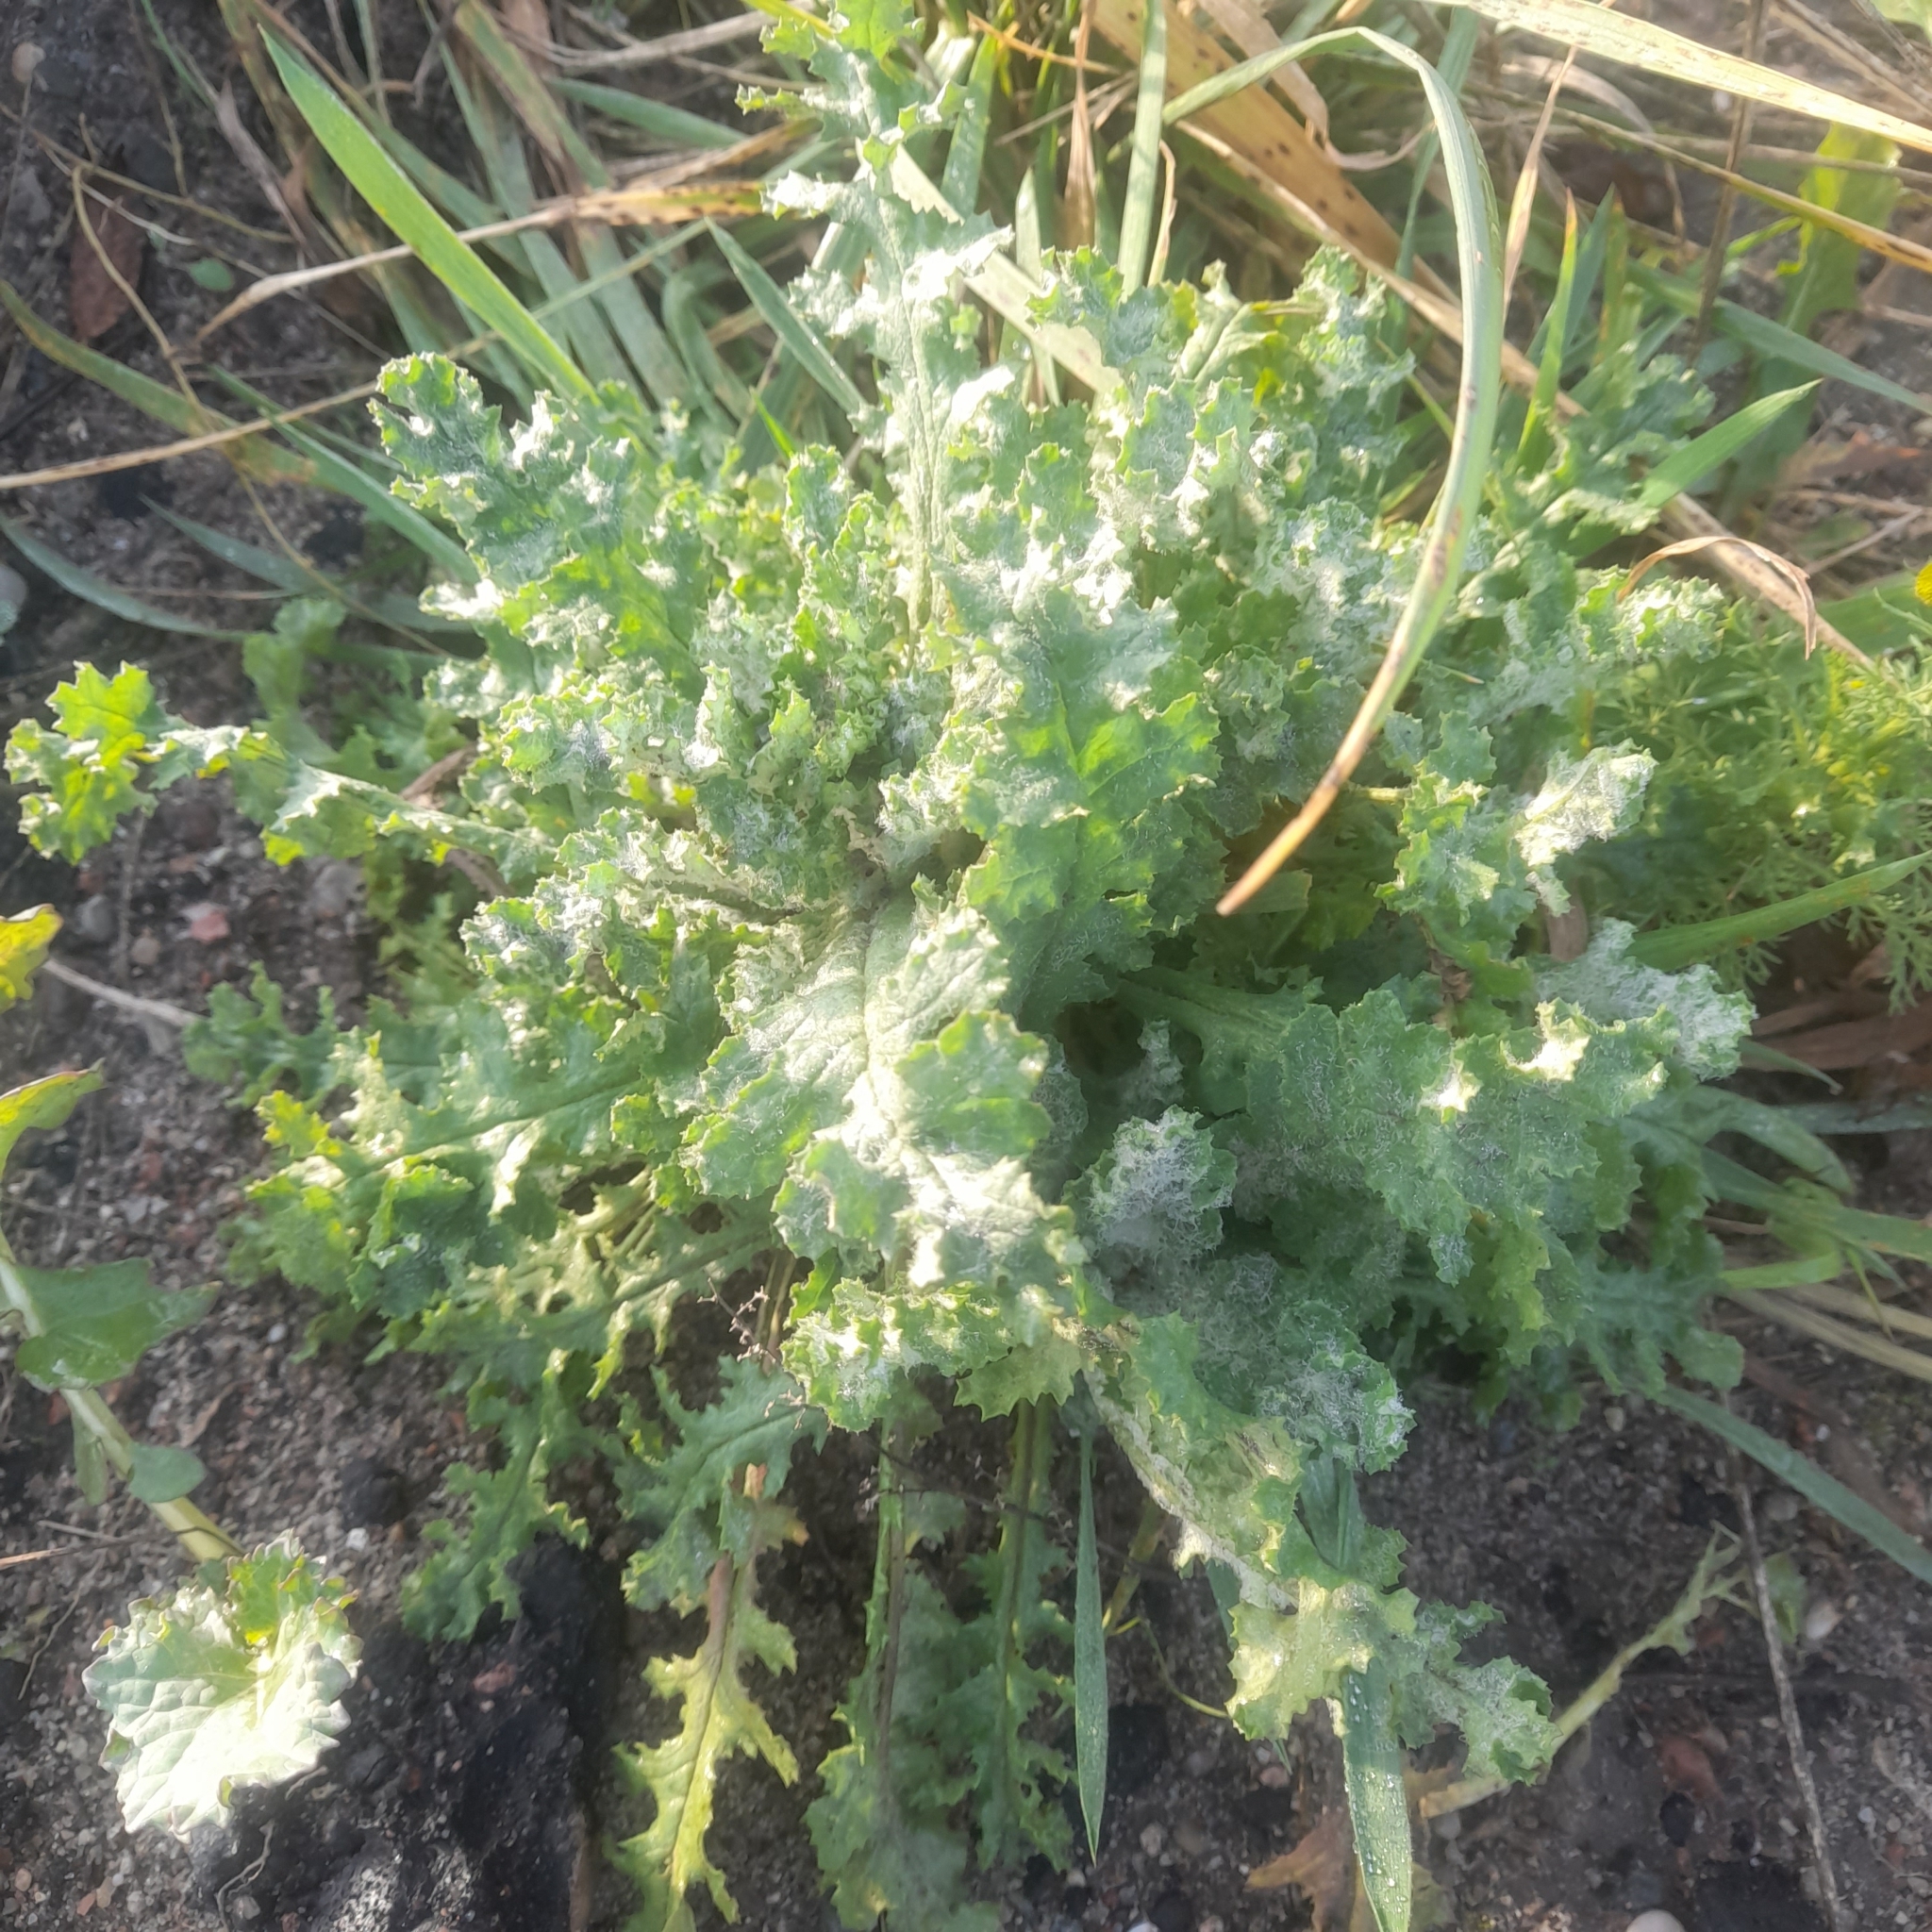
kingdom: Plantae
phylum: Tracheophyta
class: Magnoliopsida
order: Asterales
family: Asteraceae
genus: Senecio
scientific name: Senecio vernalis
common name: Eastern groundsel
